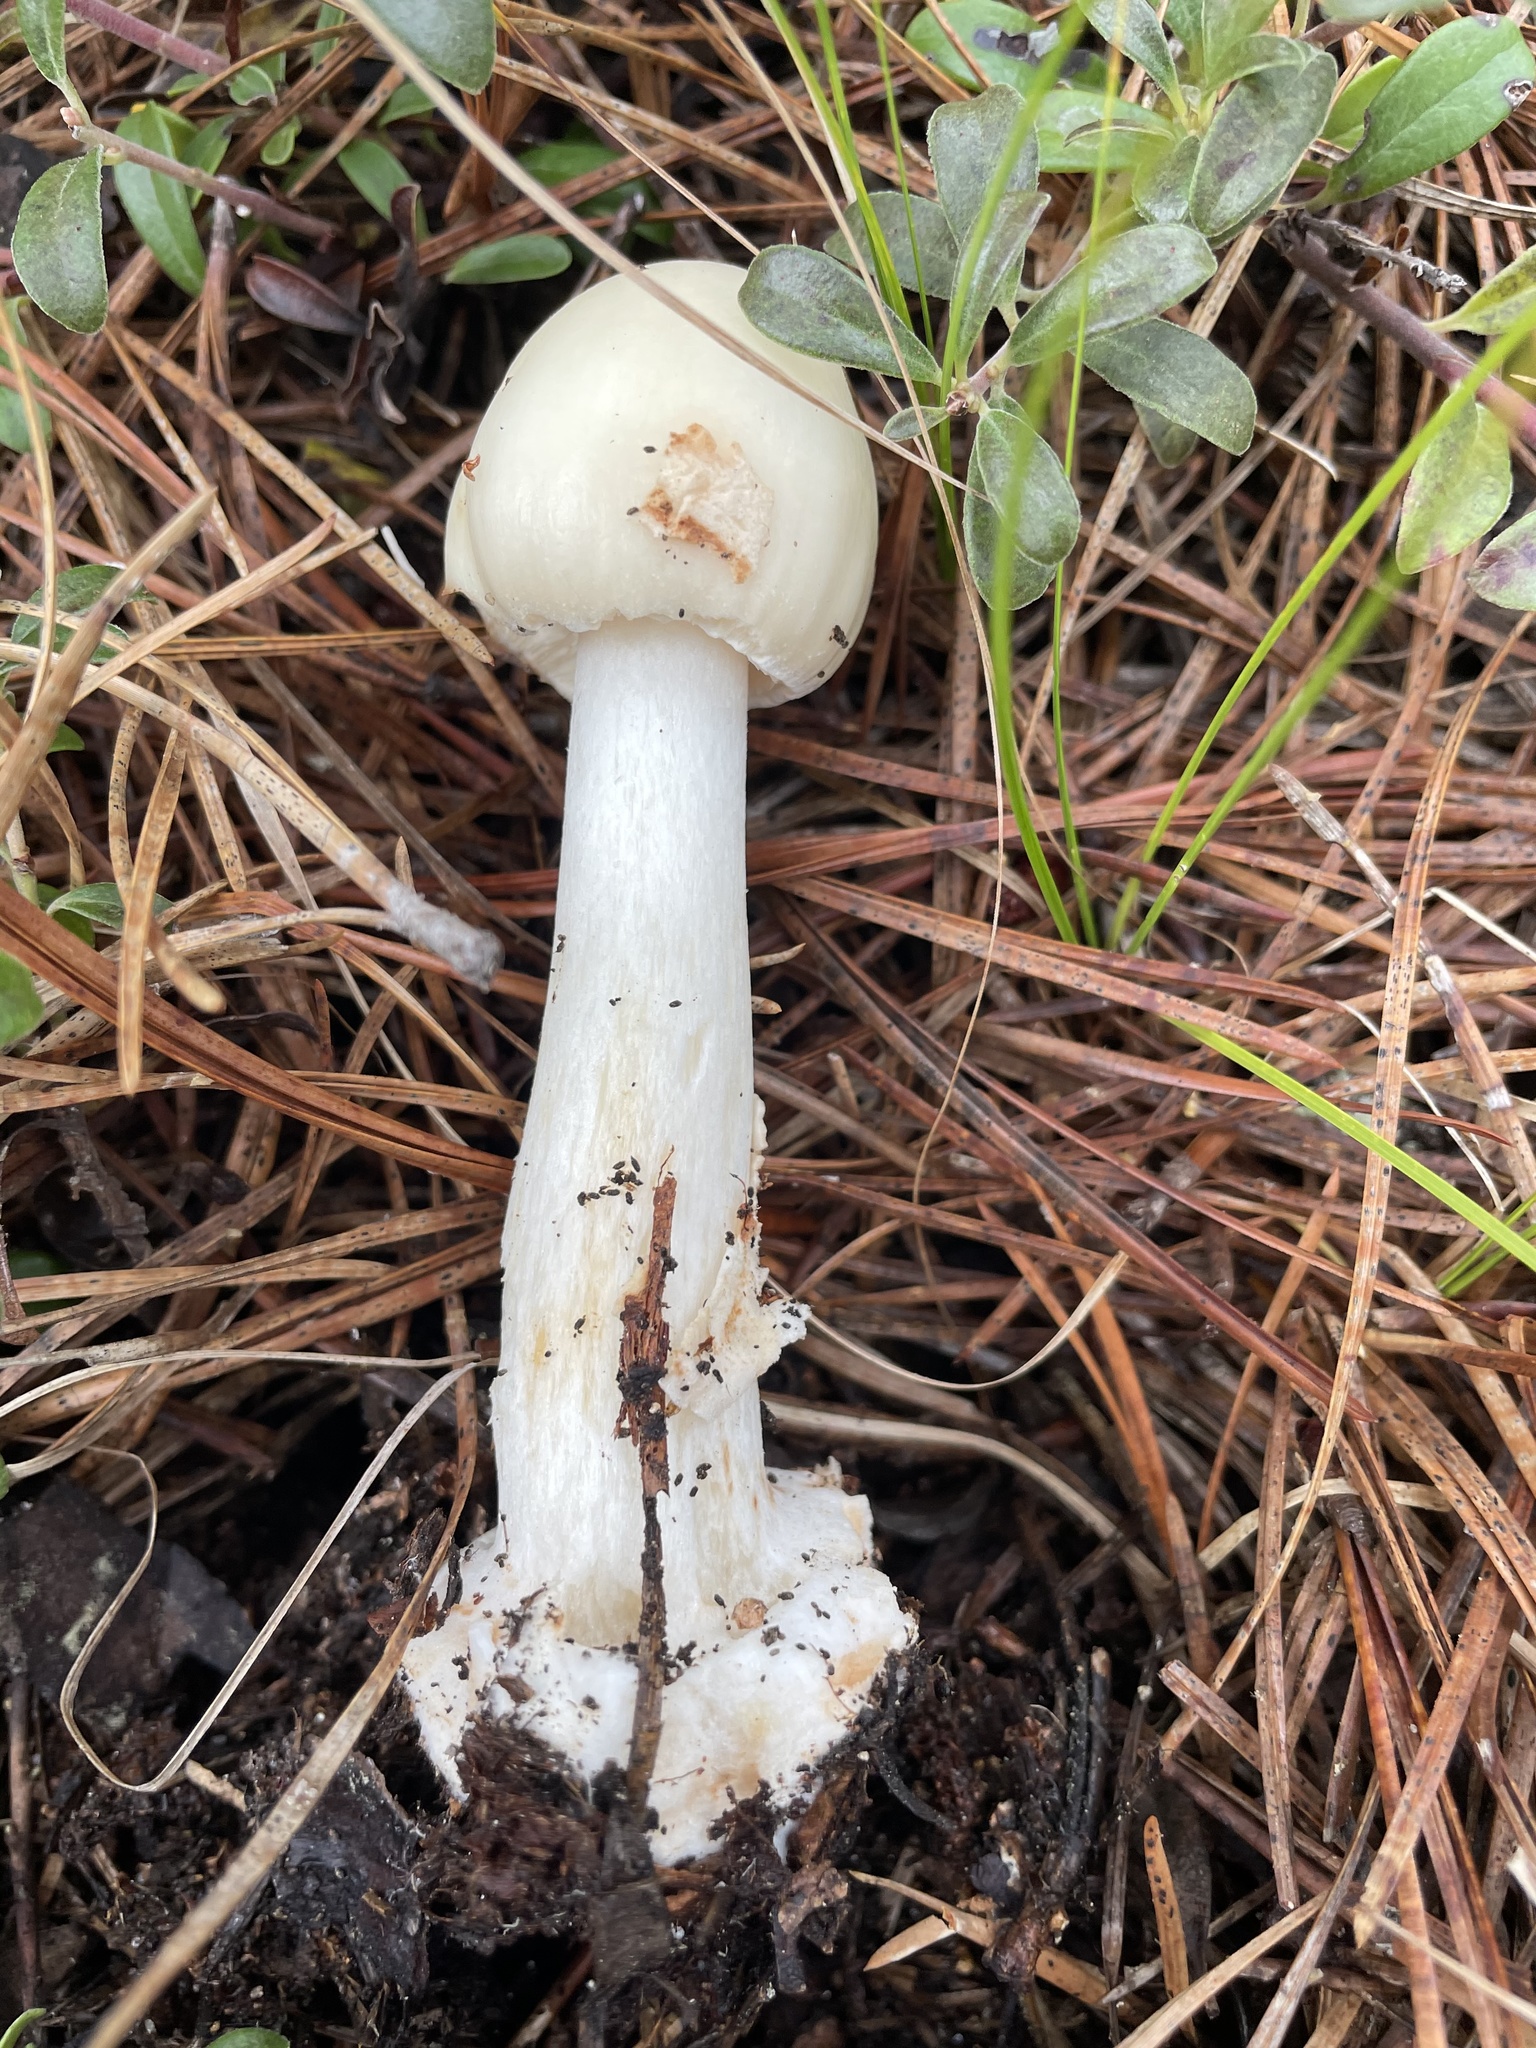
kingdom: Fungi
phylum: Basidiomycota
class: Agaricomycetes
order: Agaricales
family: Amanitaceae
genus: Amanita
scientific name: Amanita brunnescens
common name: Brown american star-footed amanita
